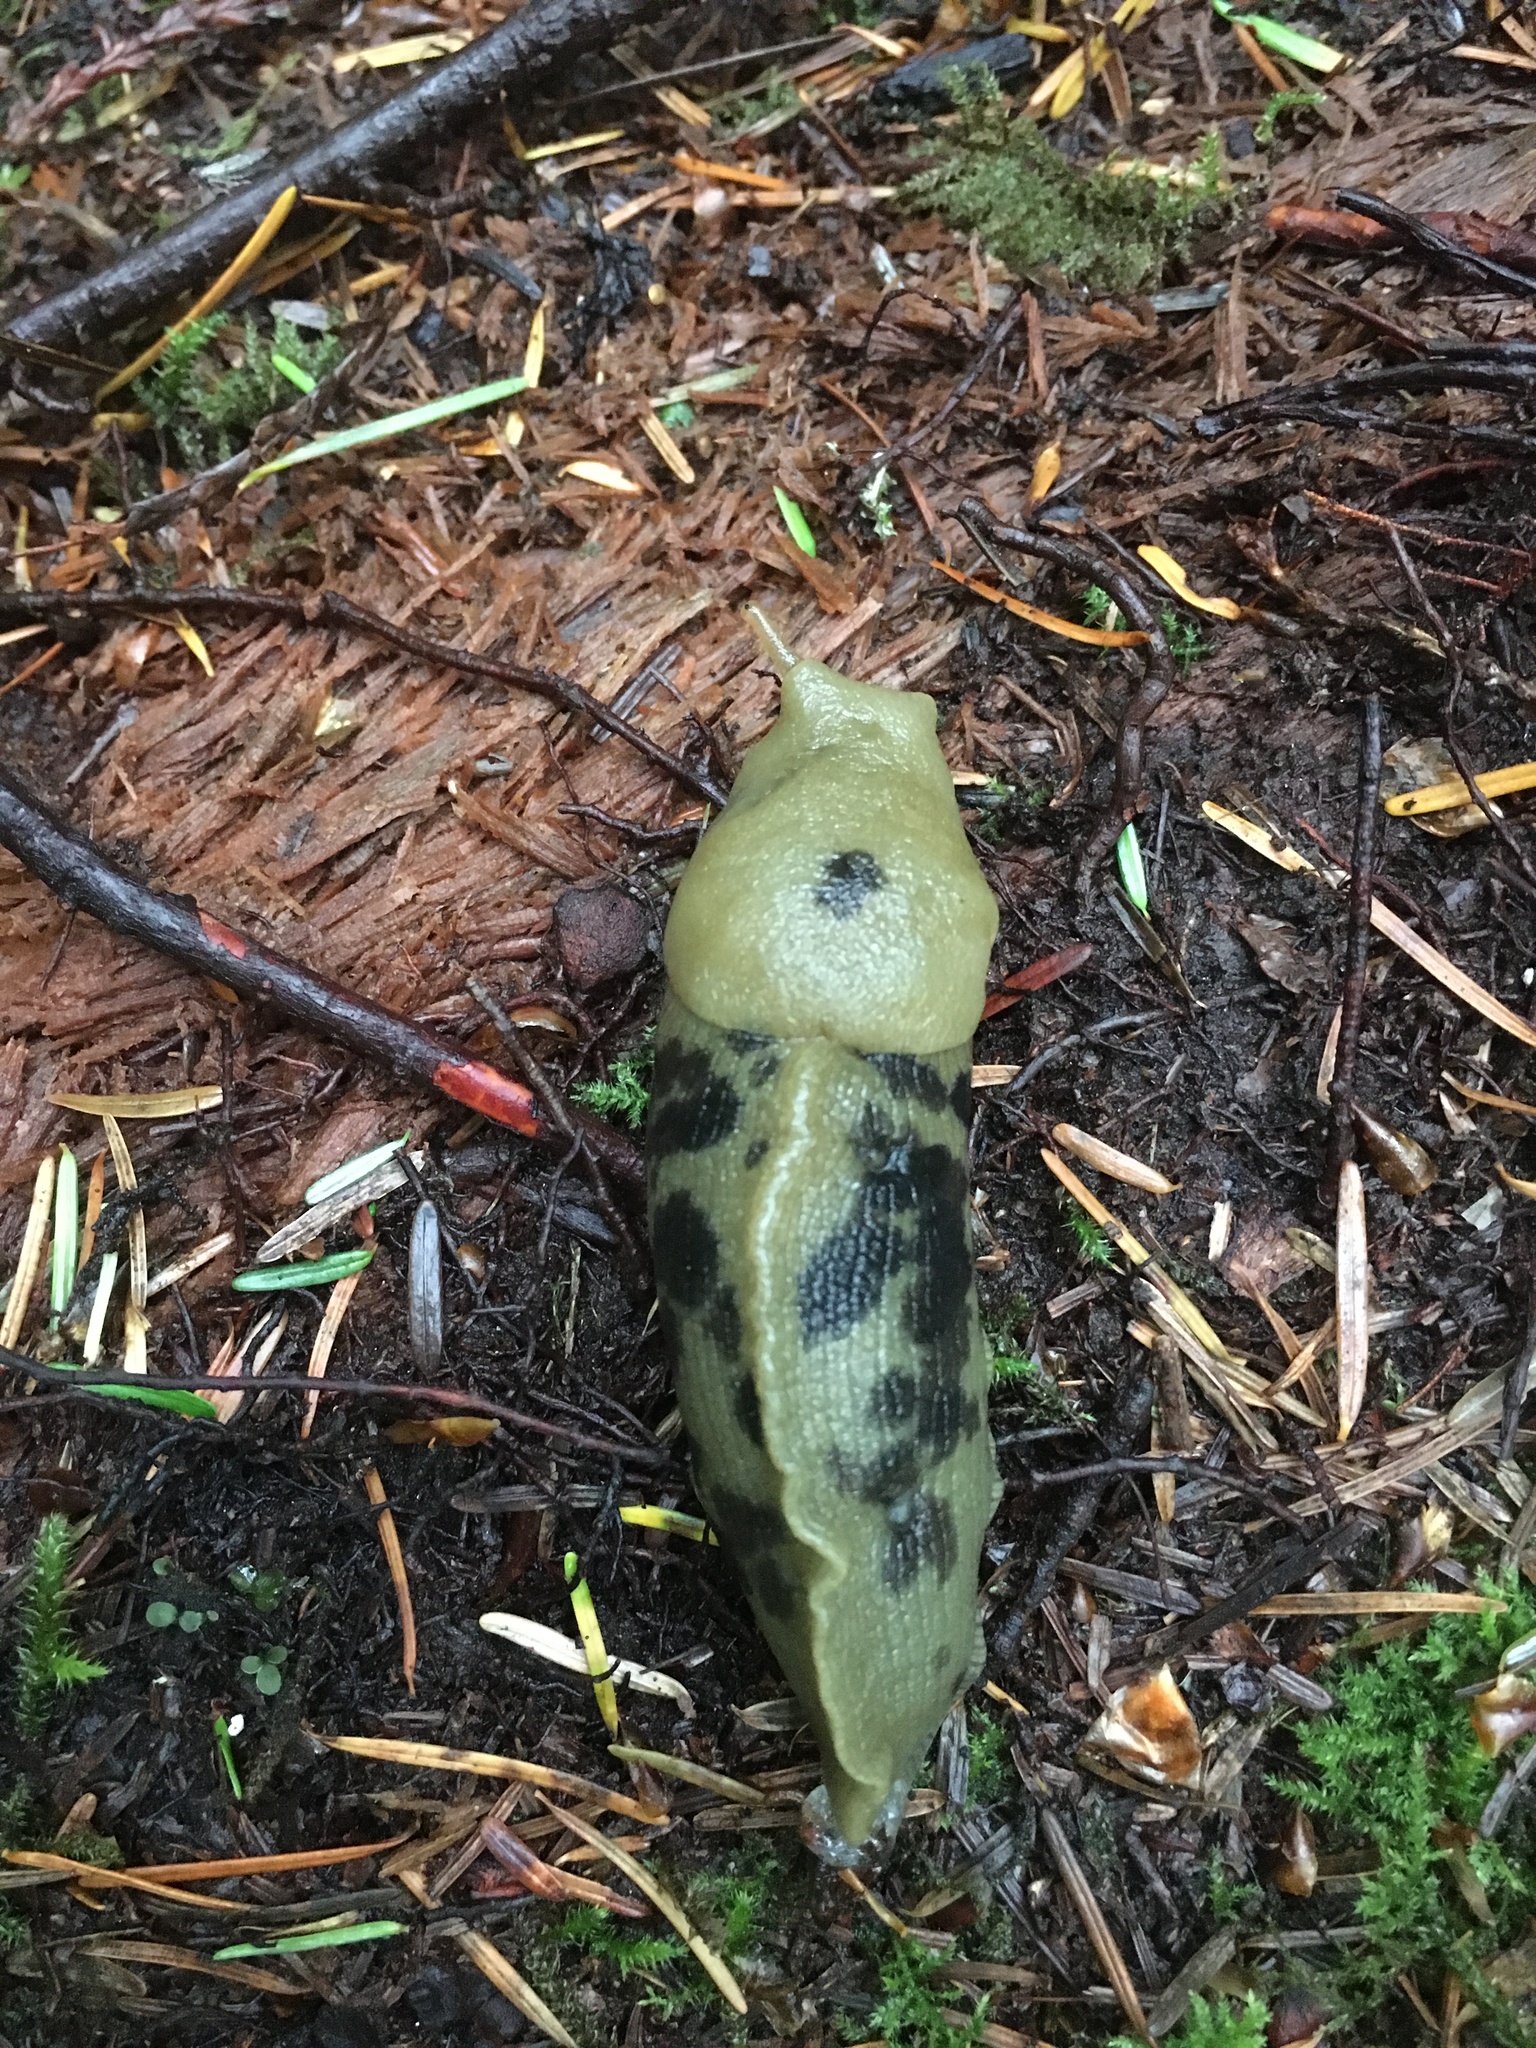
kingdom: Animalia
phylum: Mollusca
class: Gastropoda
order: Stylommatophora
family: Ariolimacidae
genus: Ariolimax
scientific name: Ariolimax columbianus
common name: Pacific banana slug
